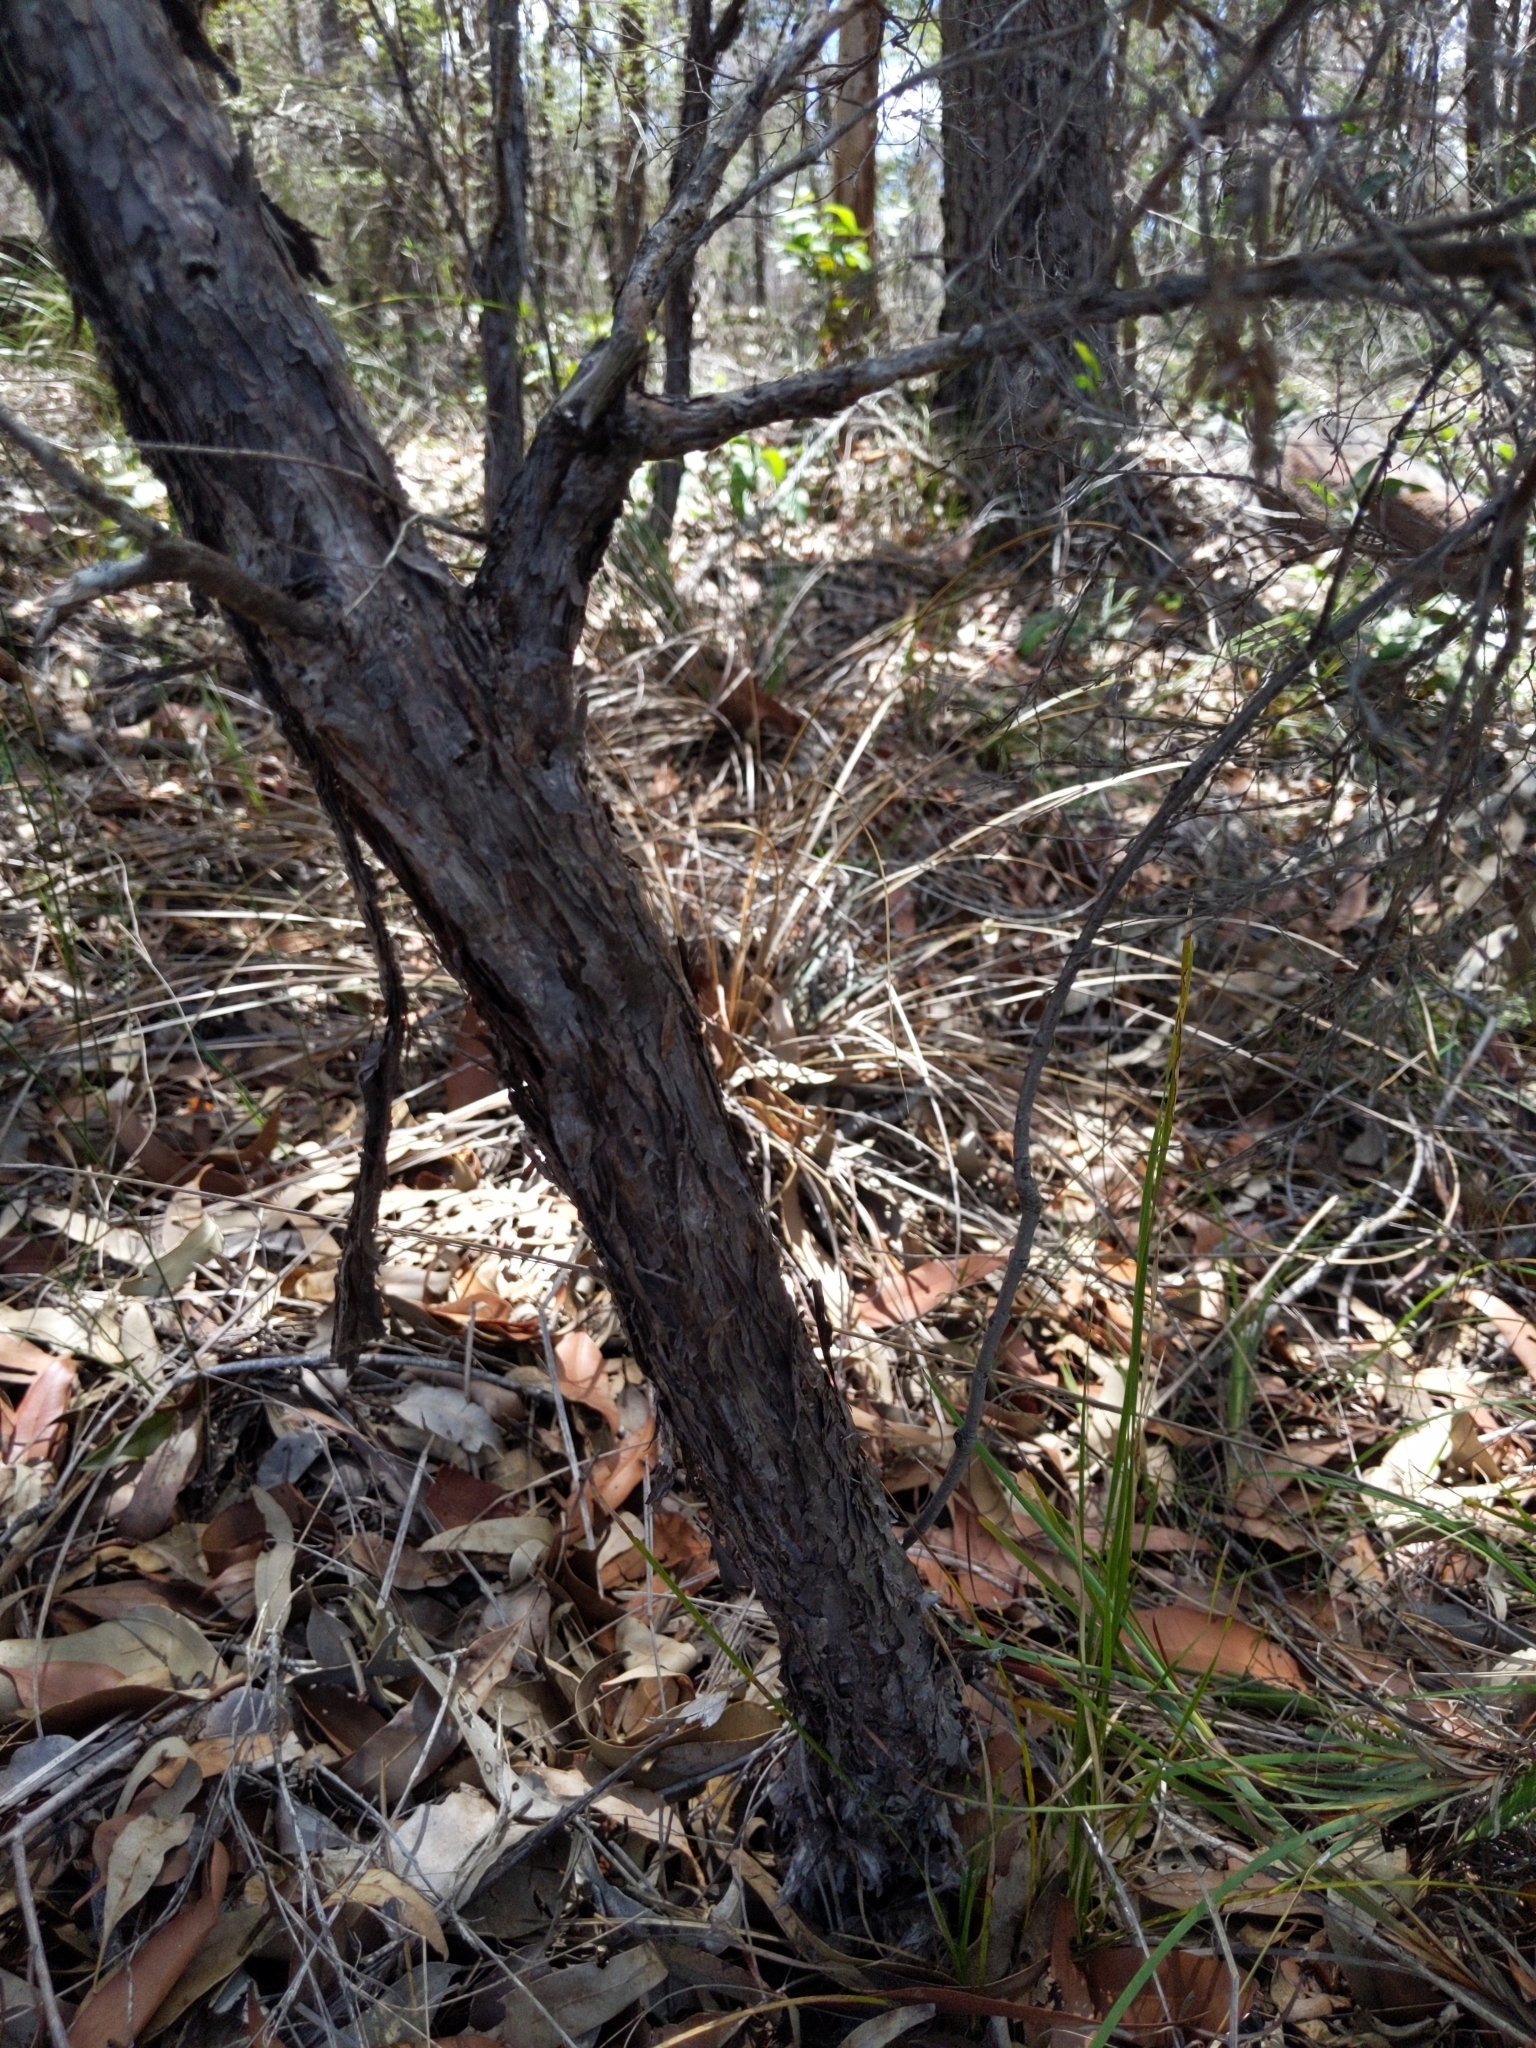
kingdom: Plantae
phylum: Tracheophyta
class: Magnoliopsida
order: Myrtales
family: Myrtaceae
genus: Leptospermum
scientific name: Leptospermum trinervium
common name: Flaky-barked tea-tree
